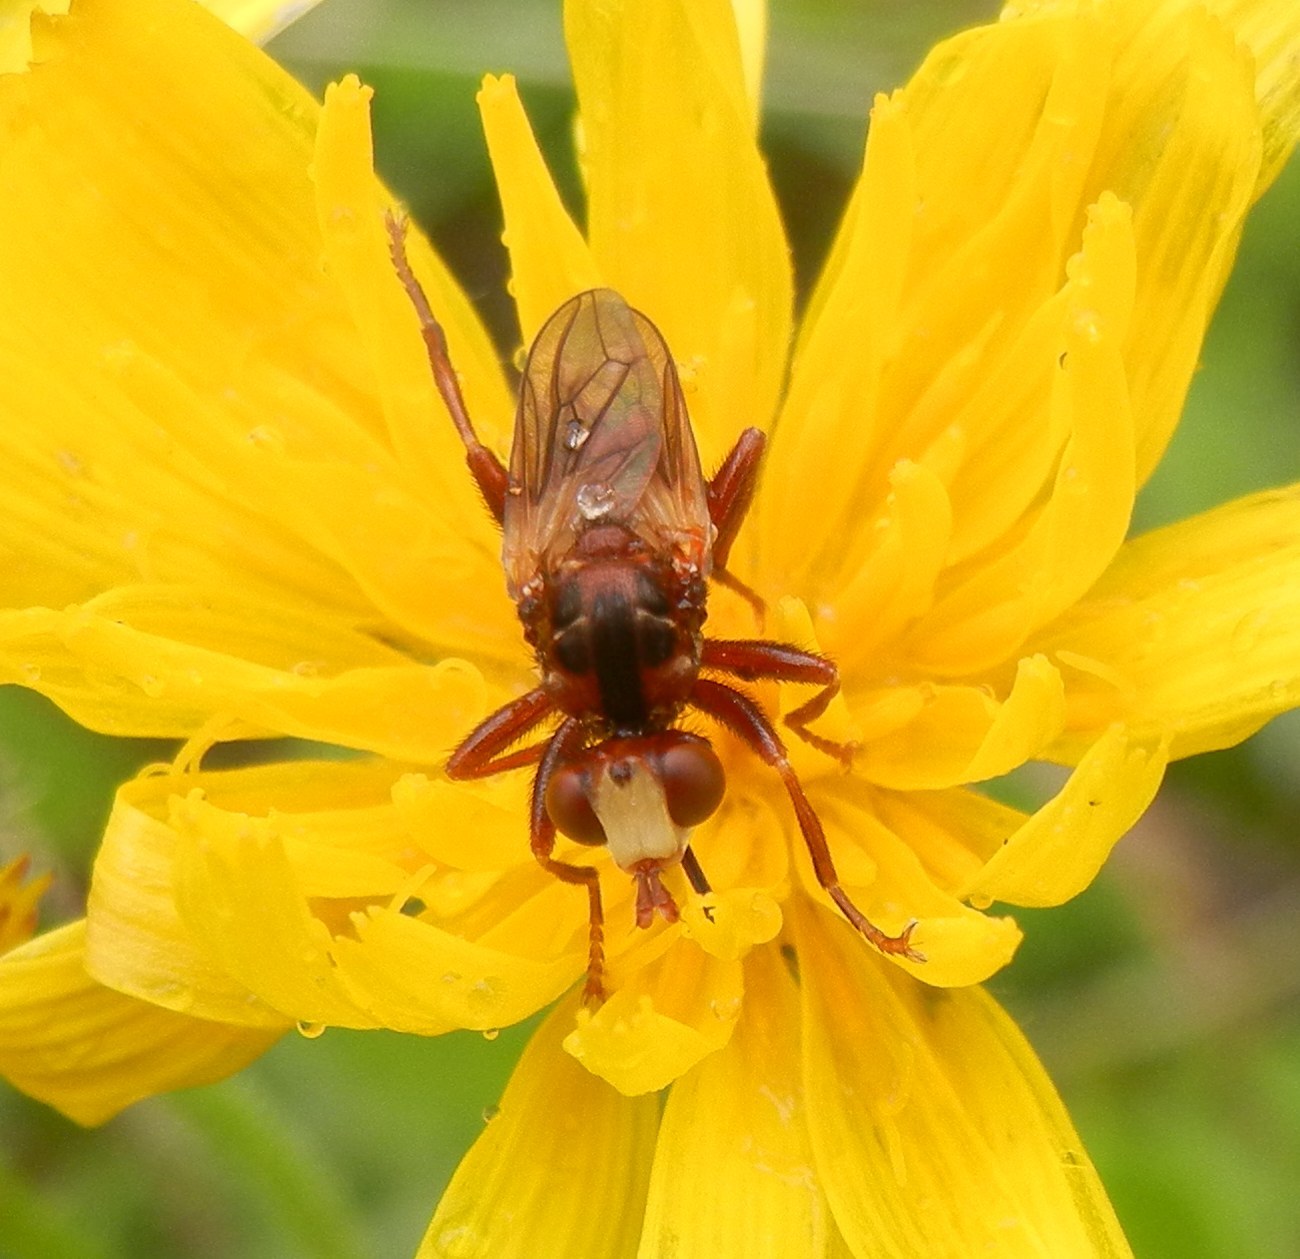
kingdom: Animalia
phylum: Arthropoda
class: Insecta
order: Diptera
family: Conopidae
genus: Sicus
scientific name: Sicus ferrugineus
